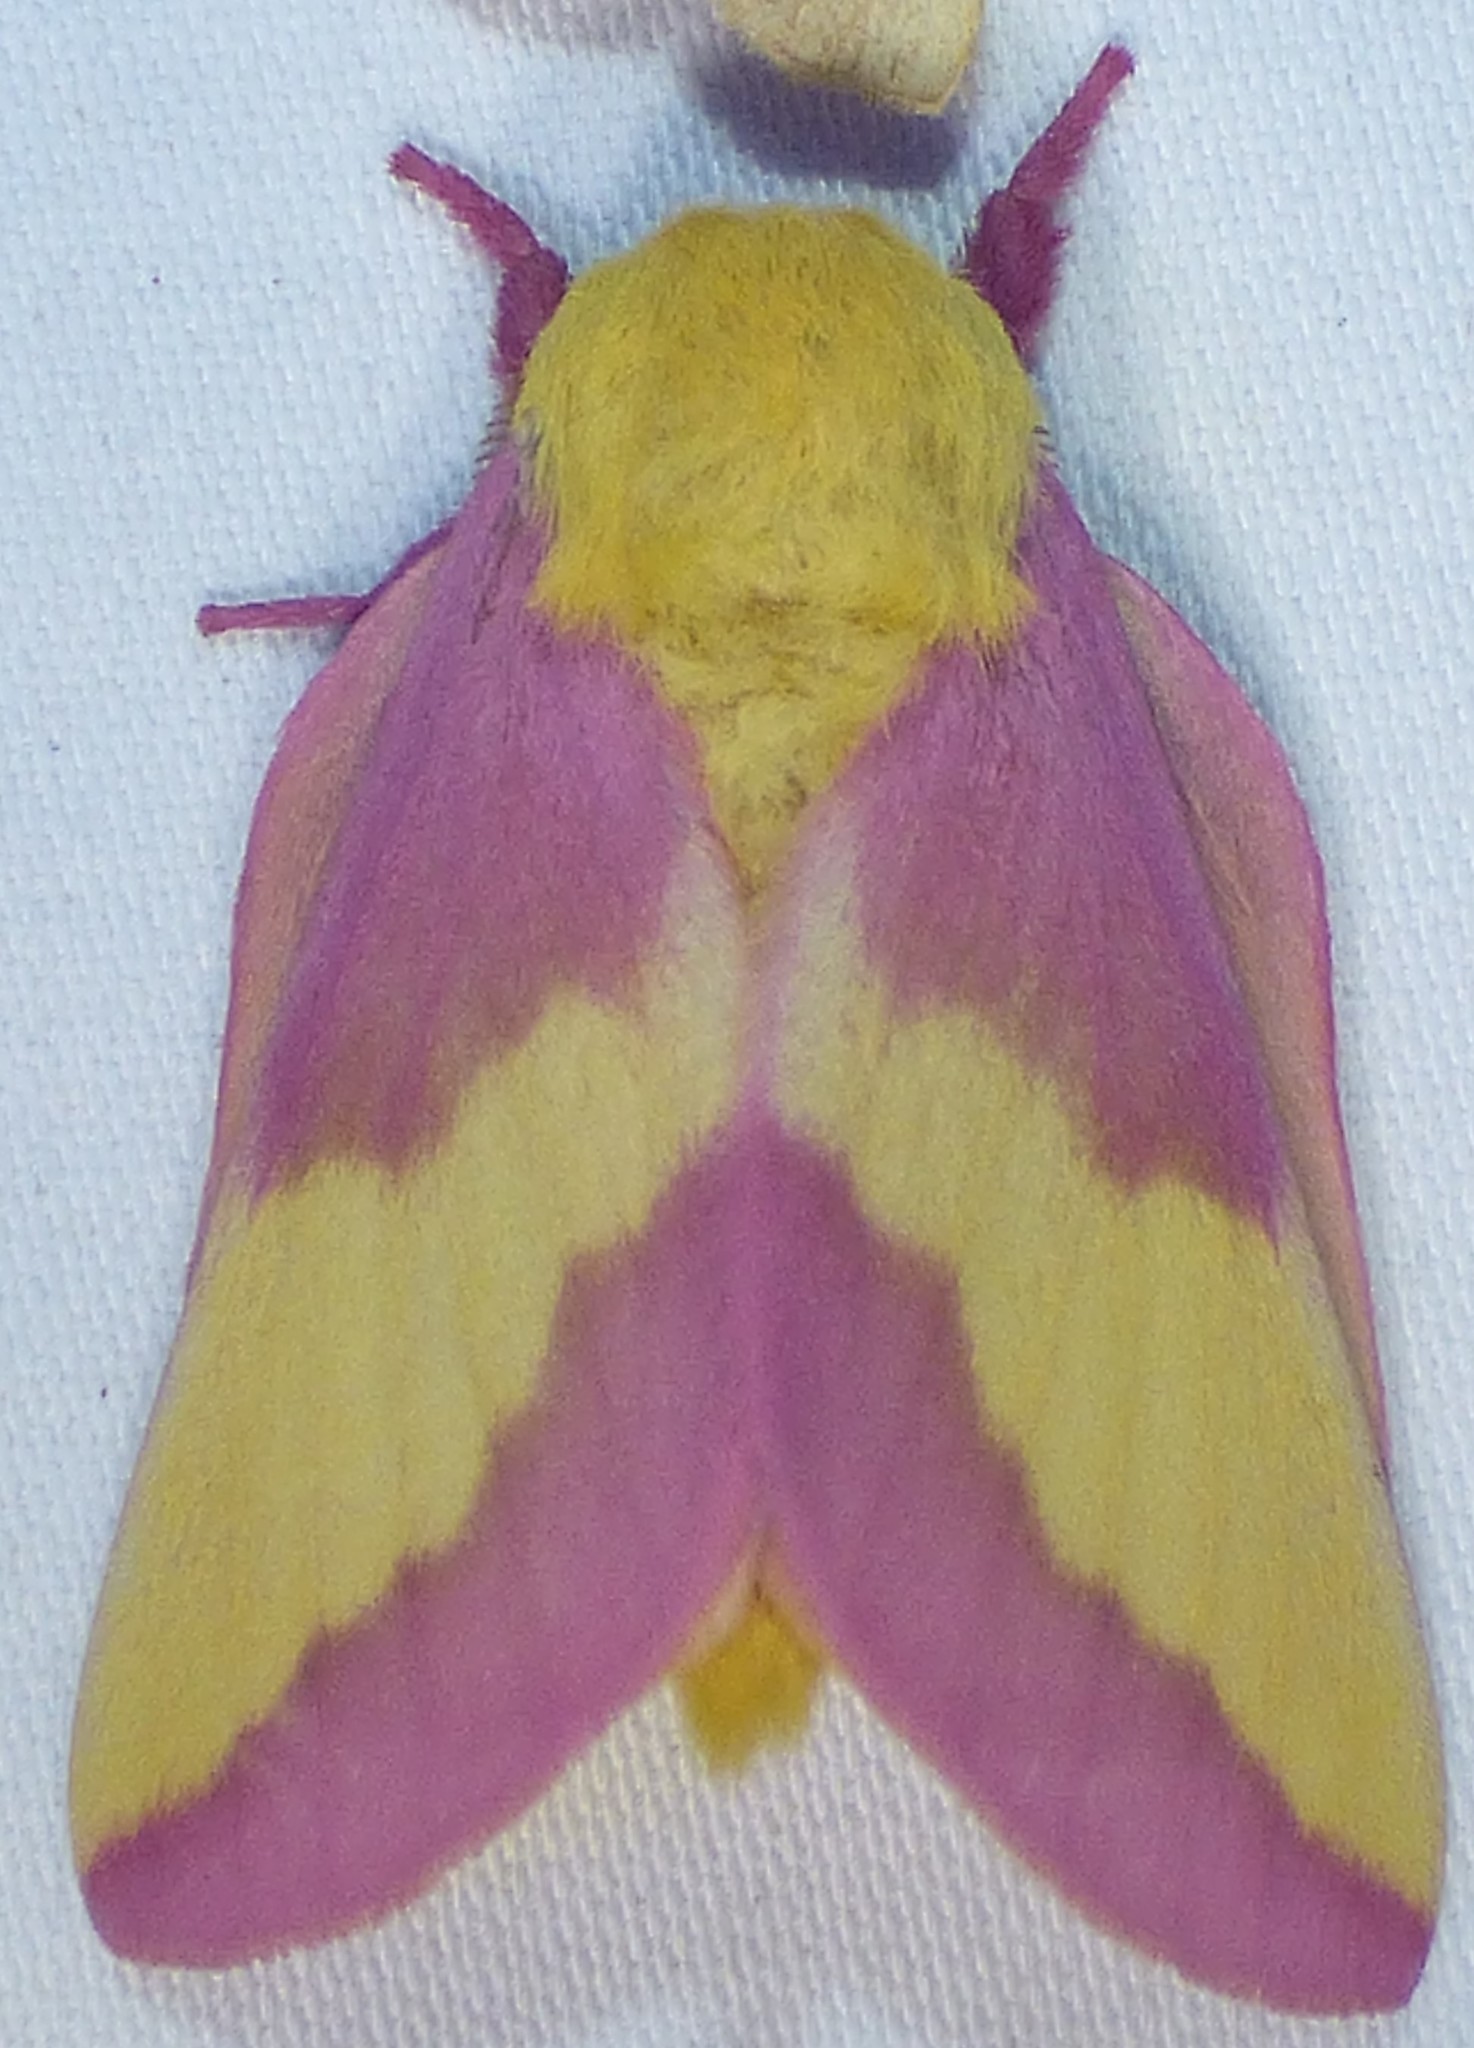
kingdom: Animalia
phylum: Arthropoda
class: Insecta
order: Lepidoptera
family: Saturniidae
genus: Dryocampa
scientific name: Dryocampa rubicunda
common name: Rosy maple moth
